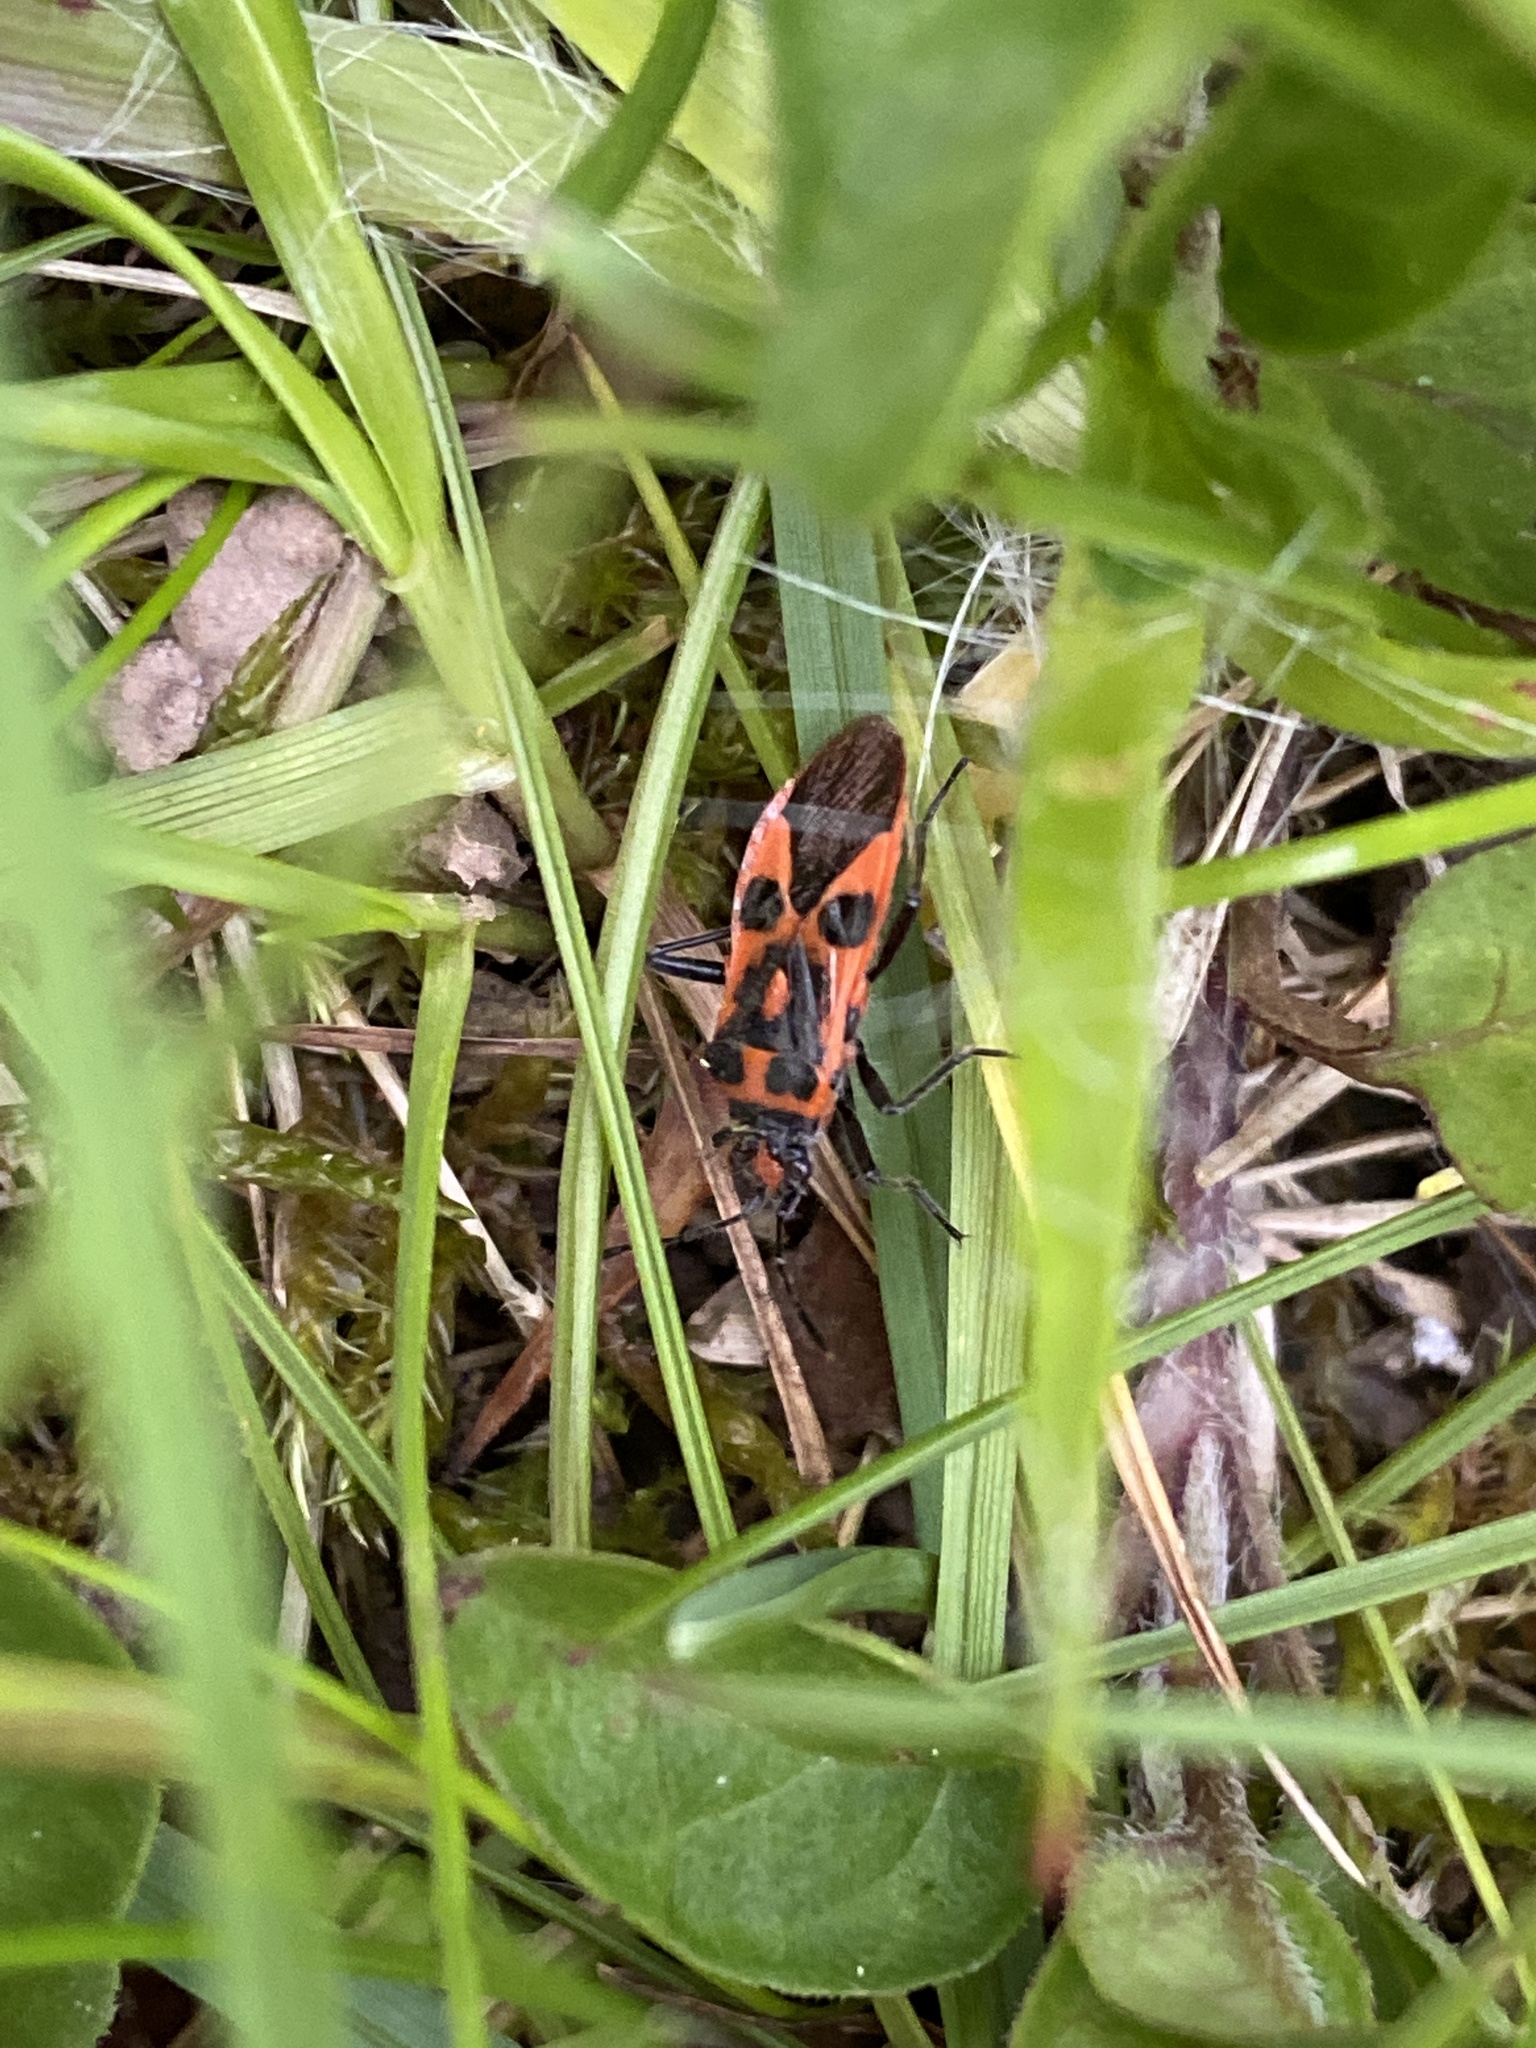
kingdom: Animalia
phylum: Arthropoda
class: Insecta
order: Hemiptera
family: Rhopalidae
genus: Corizus
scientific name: Corizus hyoscyami
